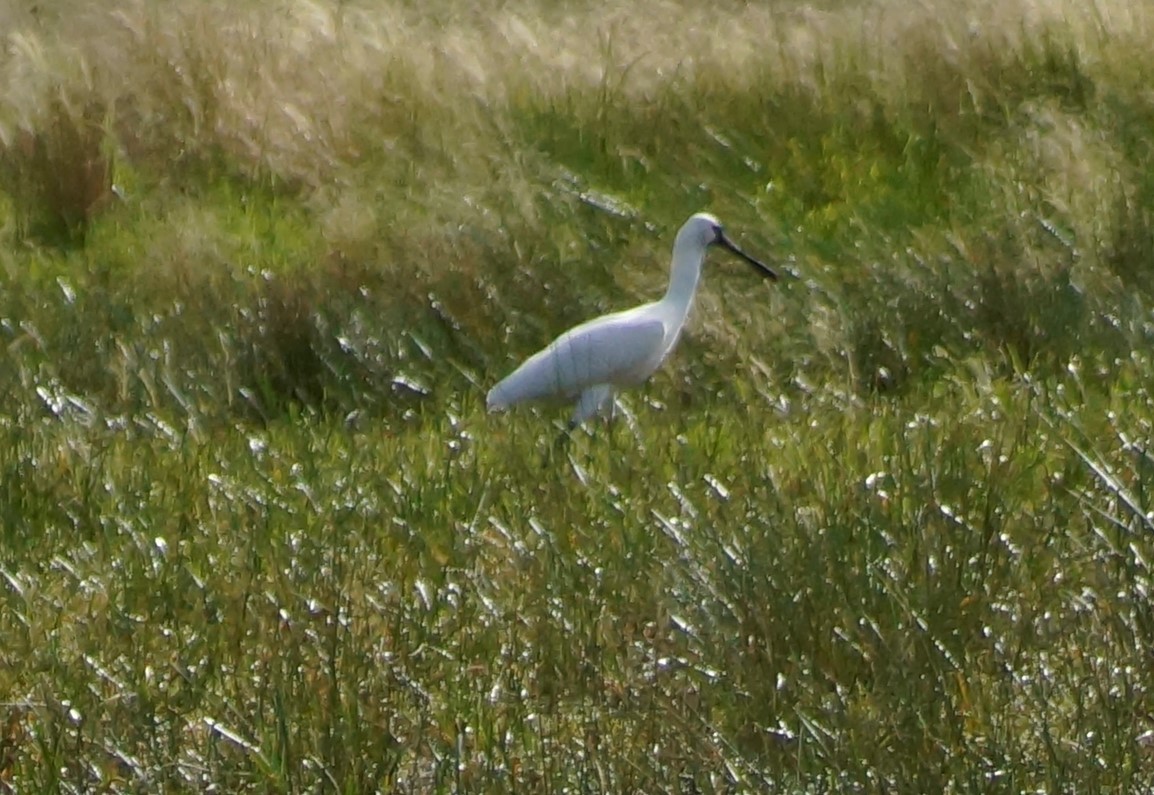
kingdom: Animalia
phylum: Chordata
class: Aves
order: Pelecaniformes
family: Threskiornithidae
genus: Platalea
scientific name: Platalea regia
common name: Royal spoonbill
